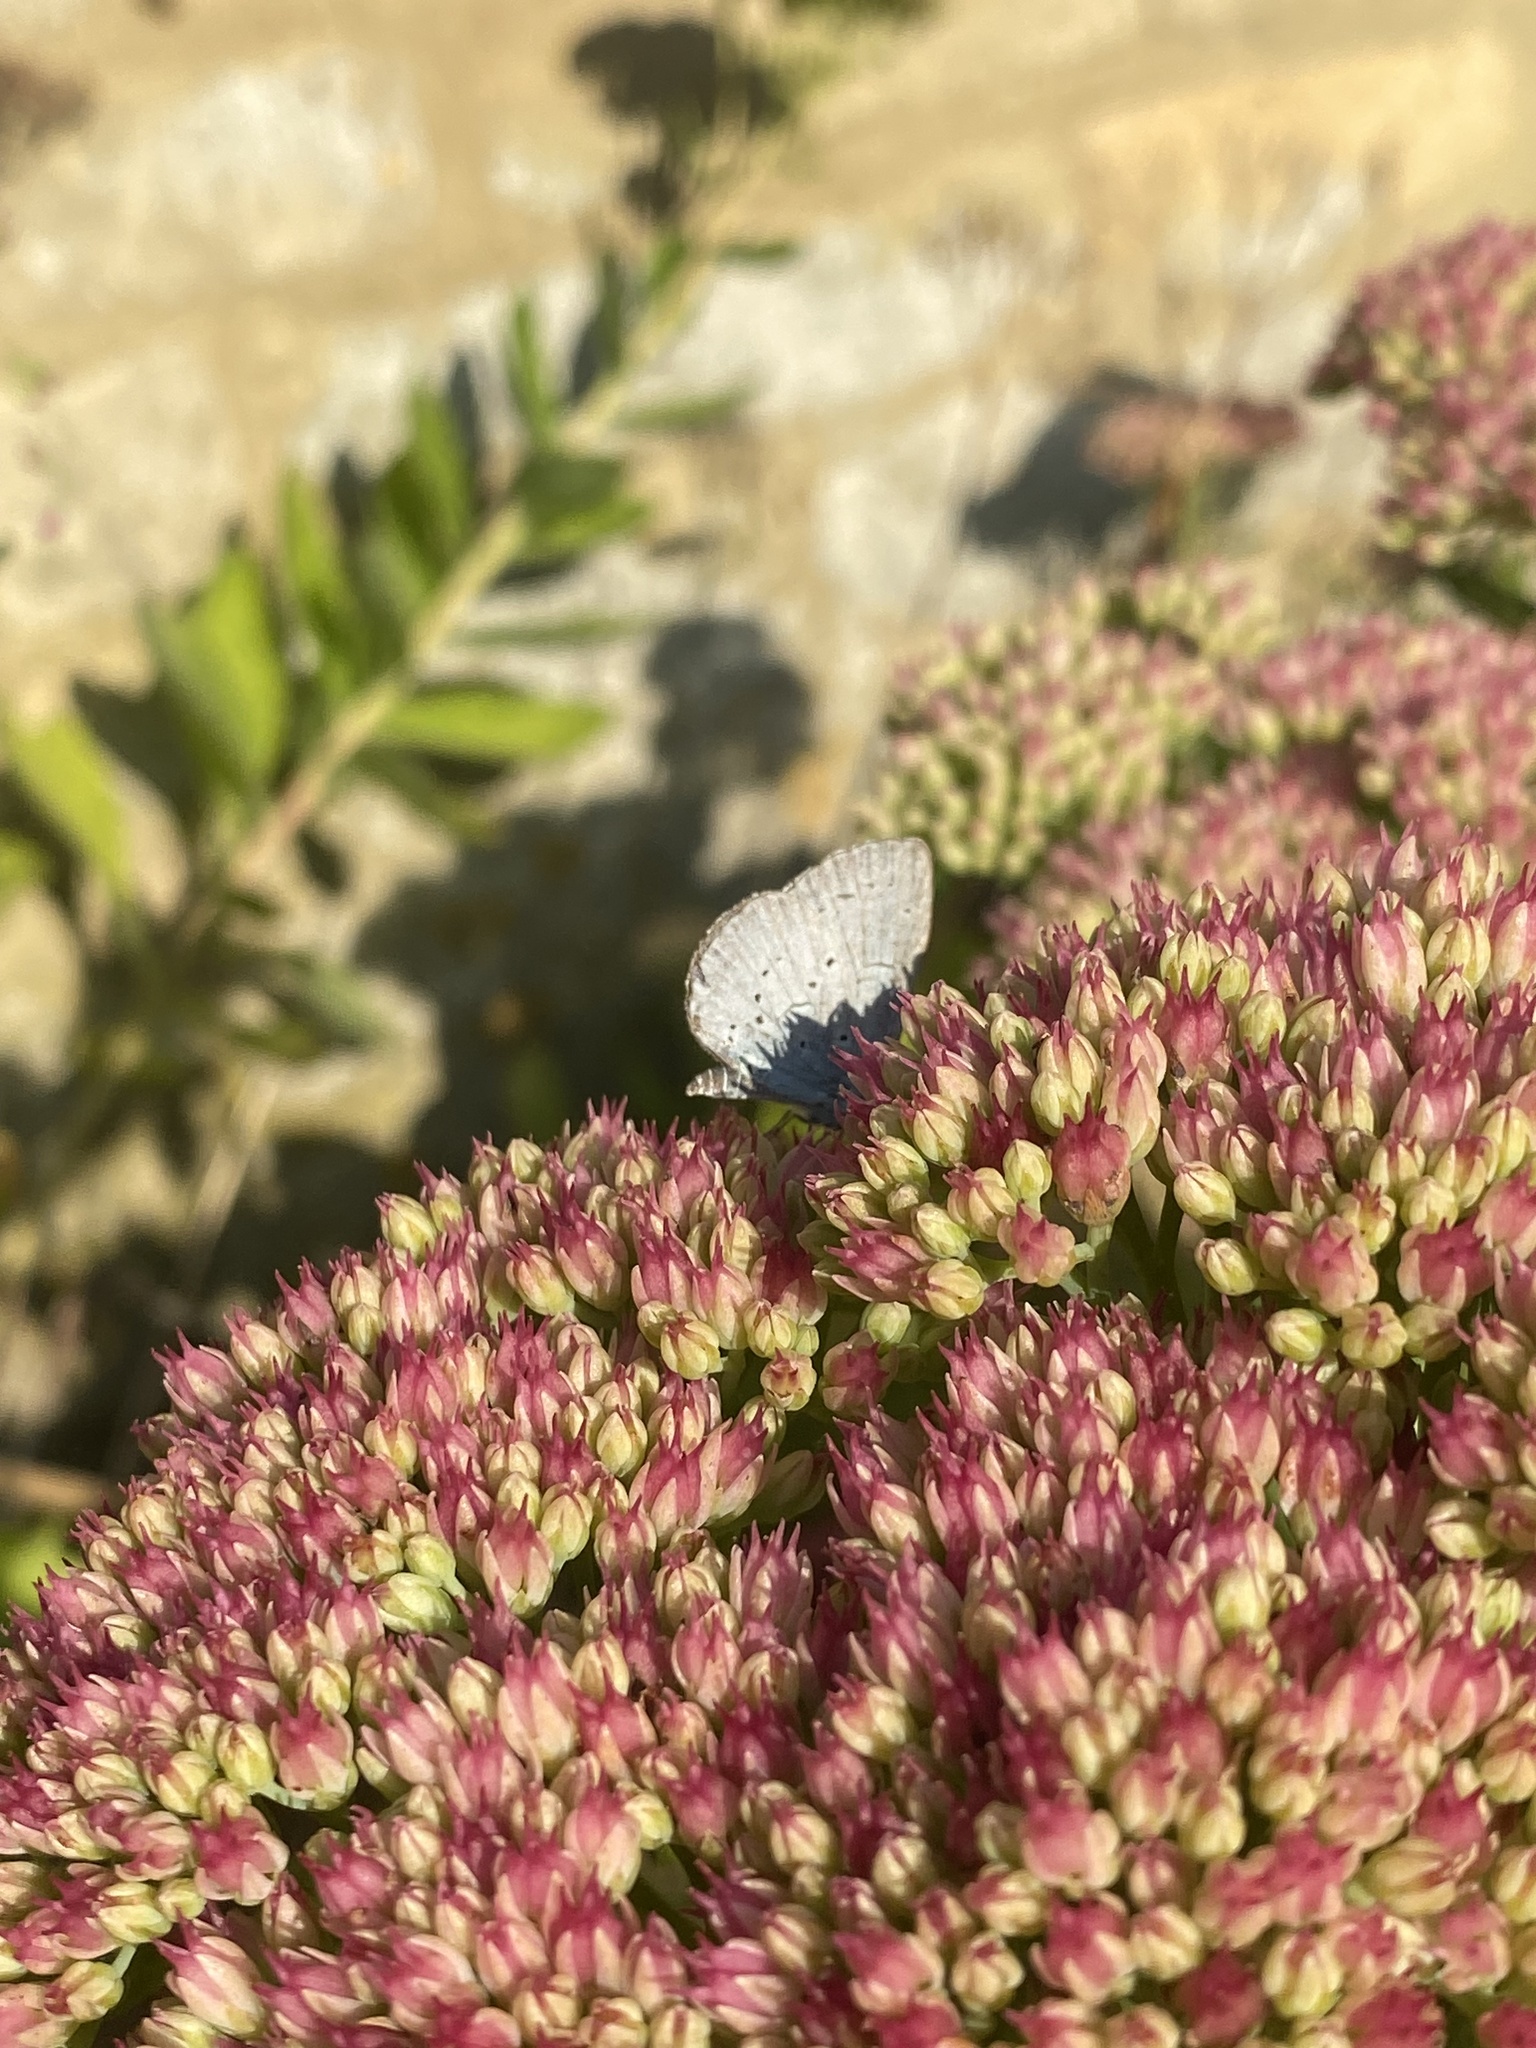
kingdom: Animalia
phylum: Arthropoda
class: Insecta
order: Lepidoptera
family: Lycaenidae
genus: Celastrina
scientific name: Celastrina argiolus
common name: Holly blue
